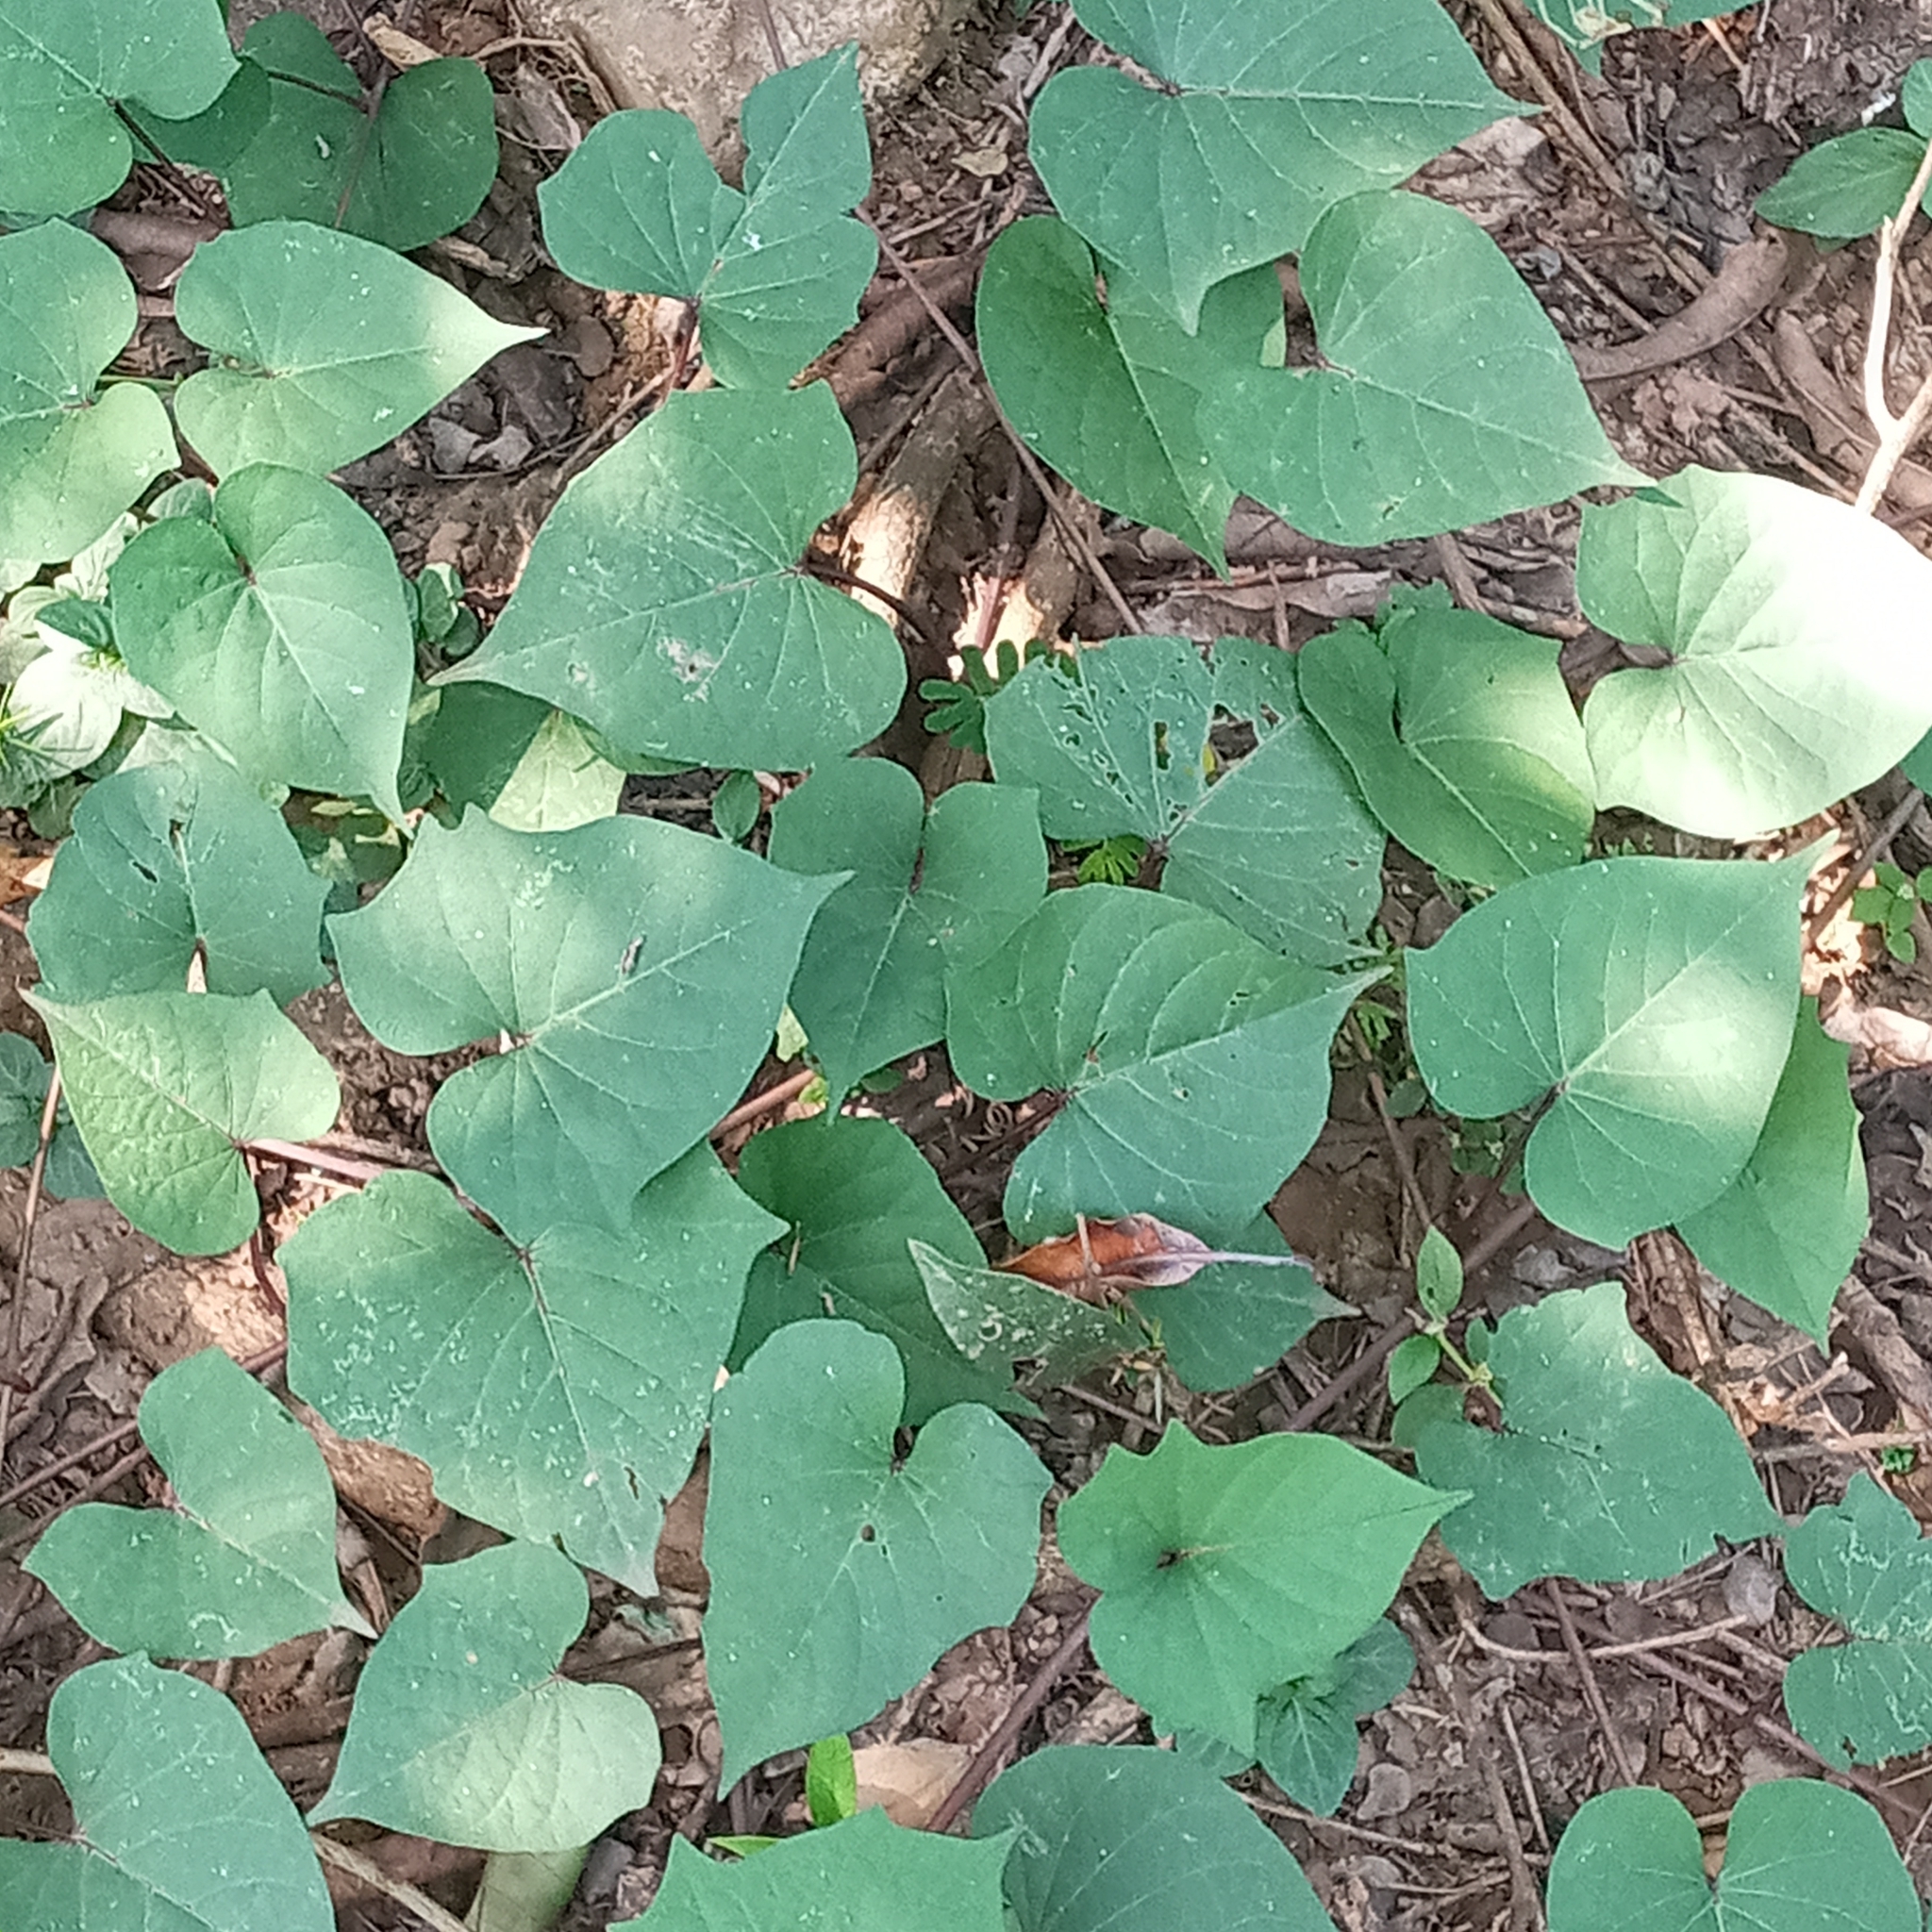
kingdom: Plantae
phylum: Tracheophyta
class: Magnoliopsida
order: Solanales
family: Convolvulaceae
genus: Ipomoea
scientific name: Ipomoea batatas
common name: Sweet-potato
